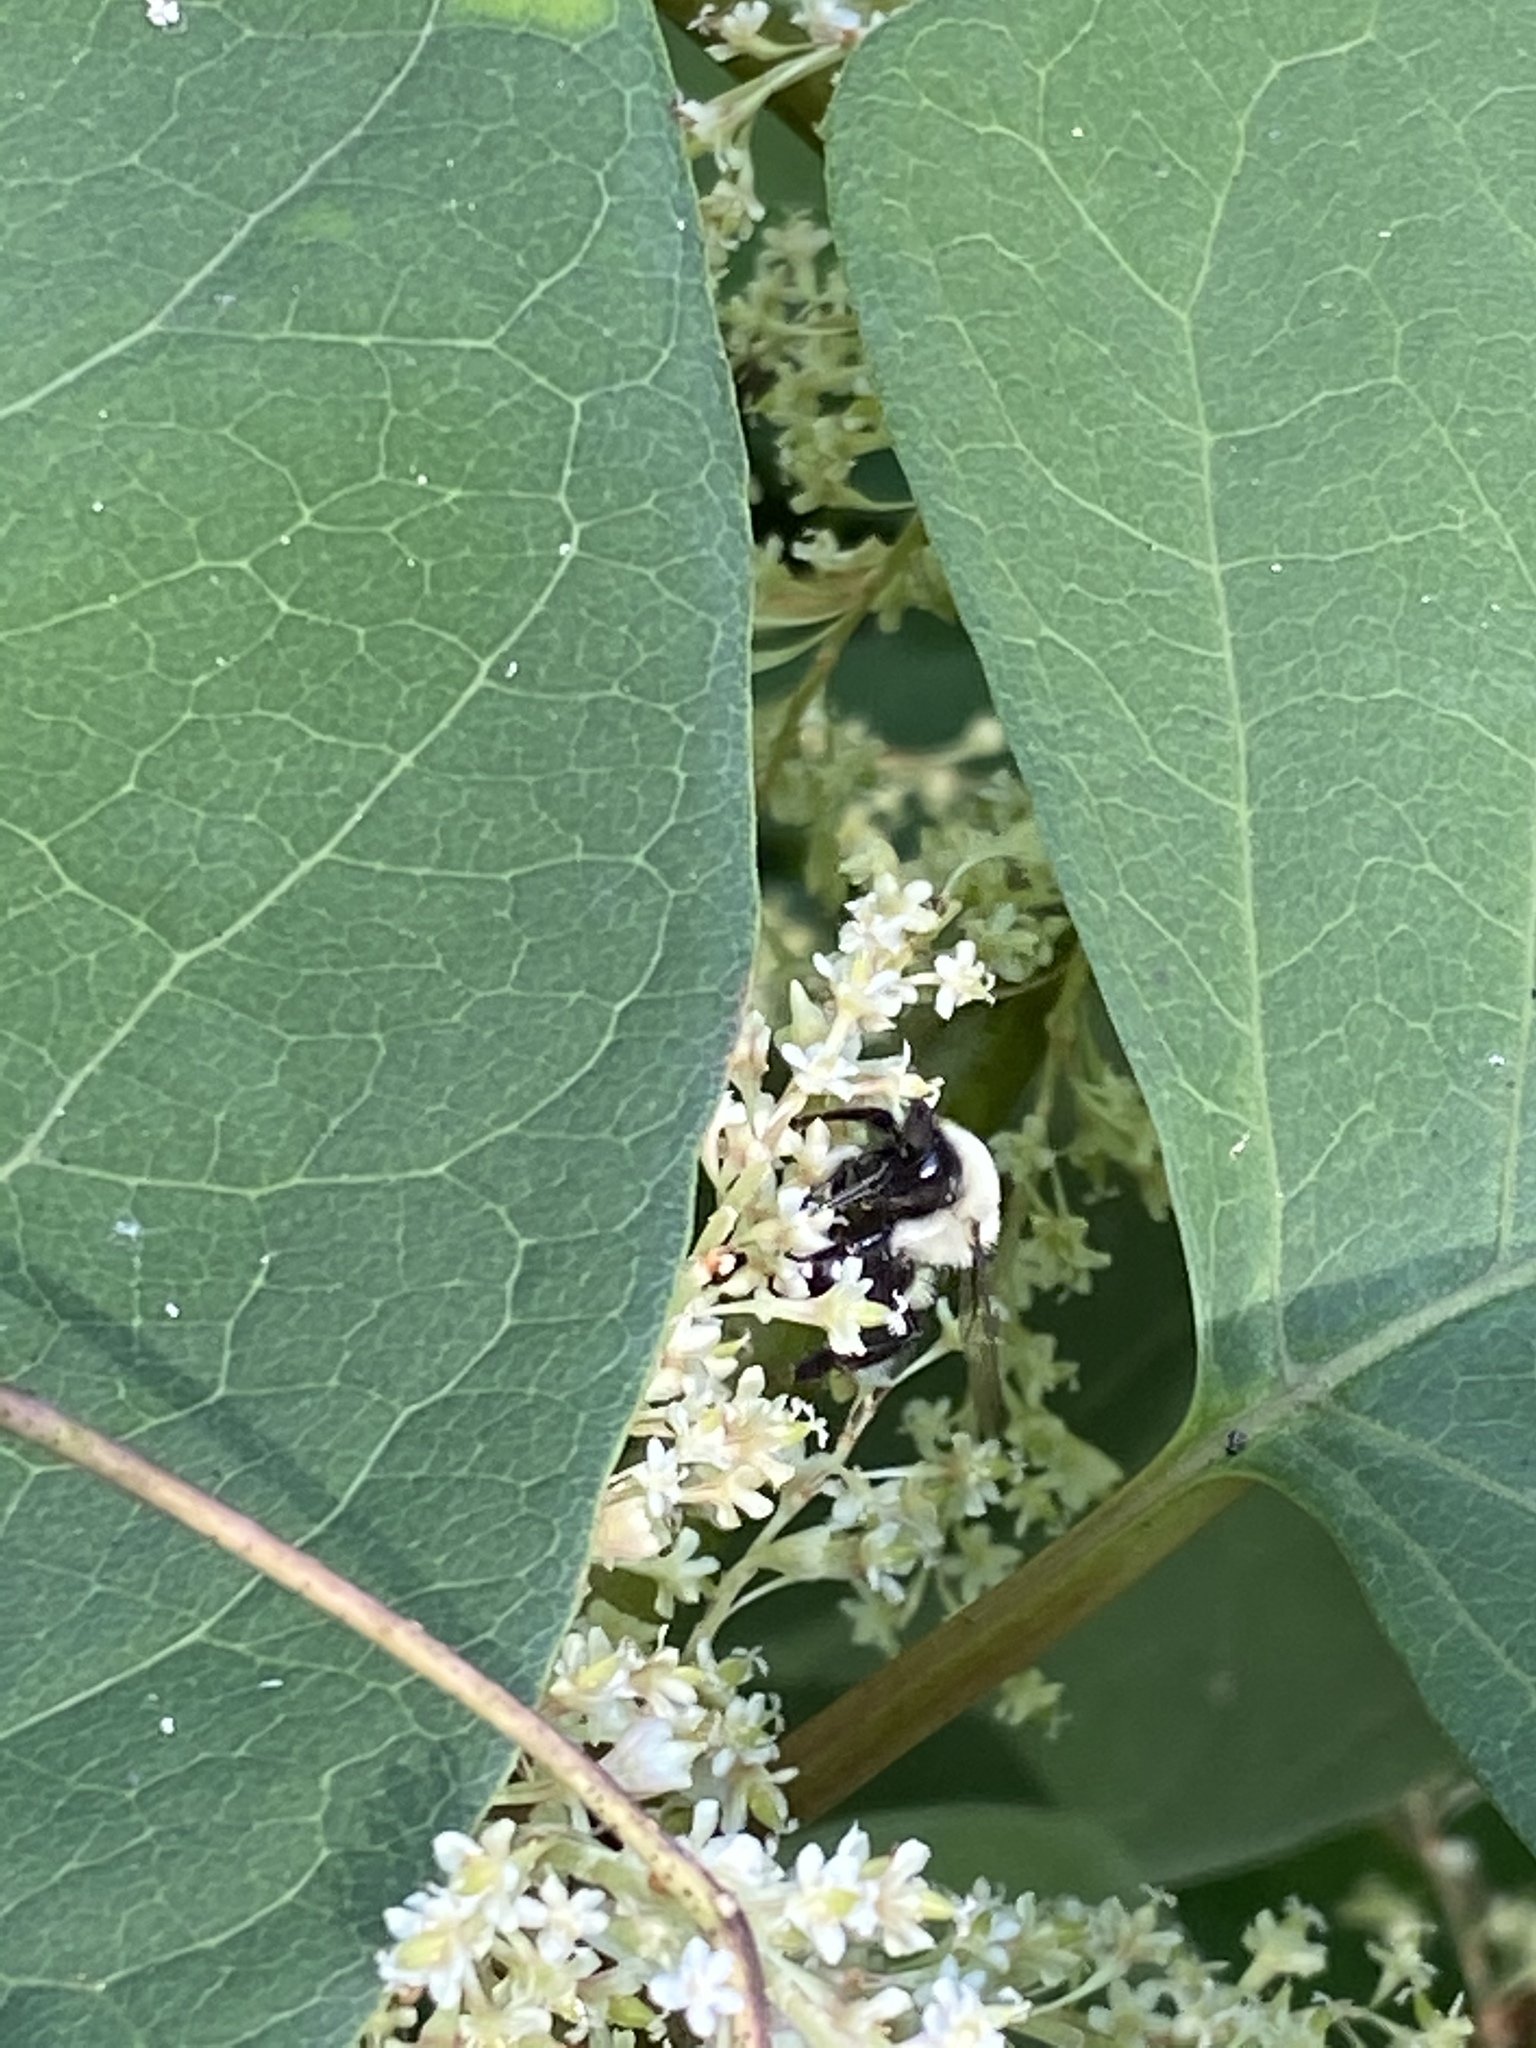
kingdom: Animalia
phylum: Arthropoda
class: Insecta
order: Hymenoptera
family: Apidae
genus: Bombus
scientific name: Bombus impatiens
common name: Common eastern bumble bee
